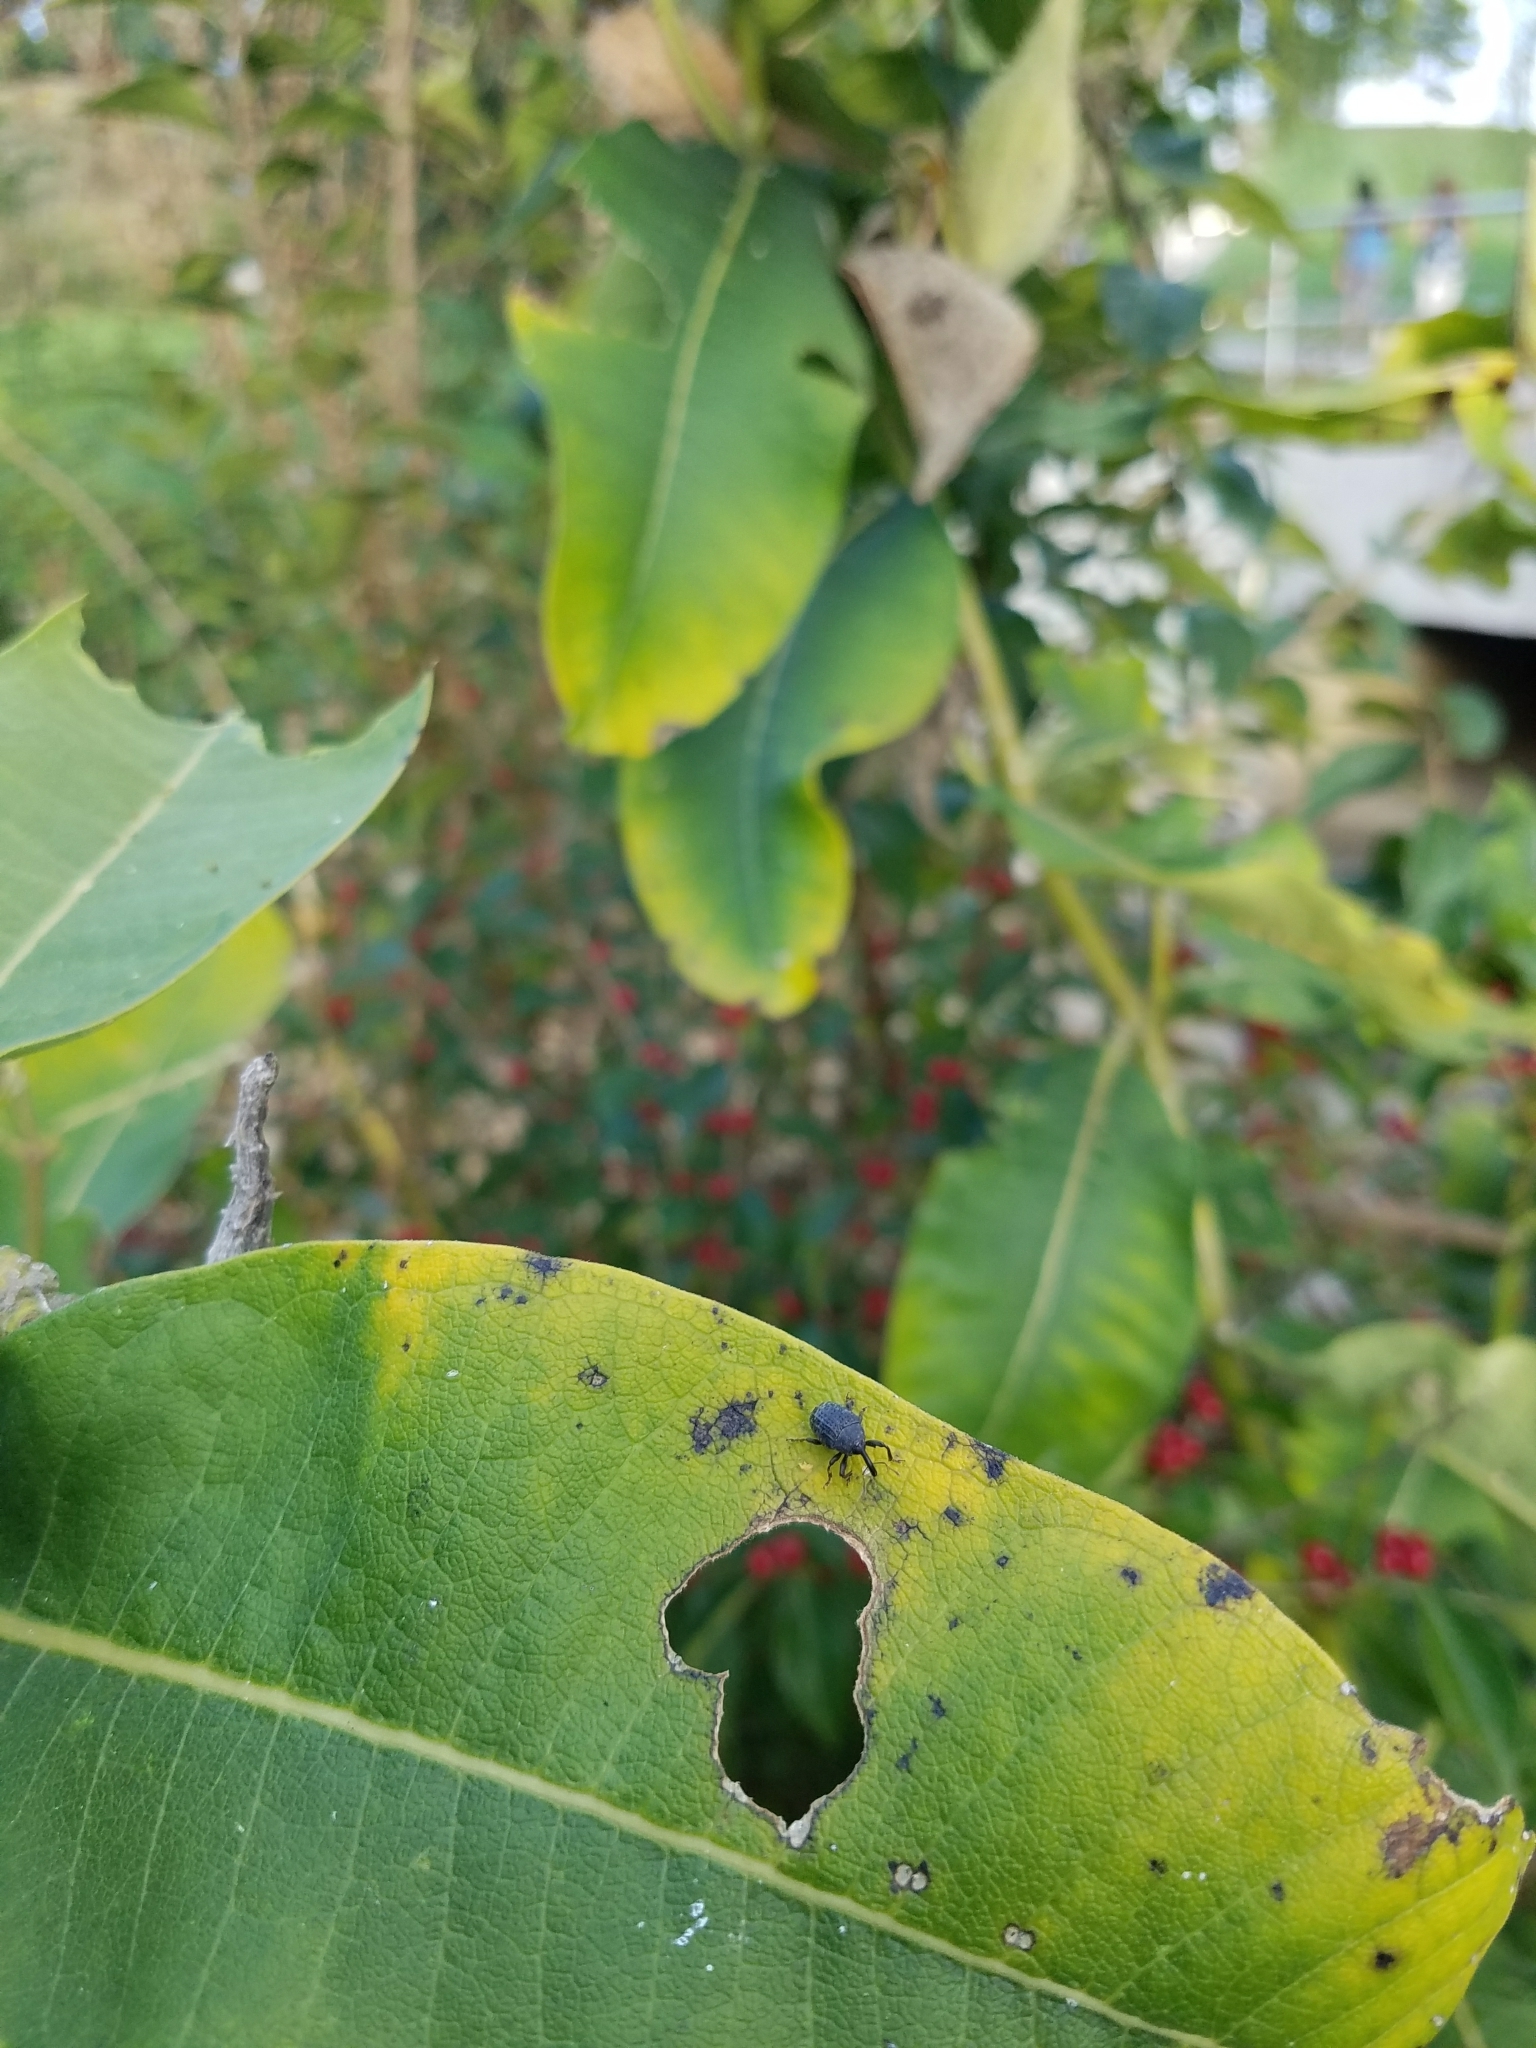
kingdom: Animalia
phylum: Arthropoda
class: Insecta
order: Coleoptera
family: Curculionidae
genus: Rhyssomatus
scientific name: Rhyssomatus lineaticollis
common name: Milkweed stem weevil
